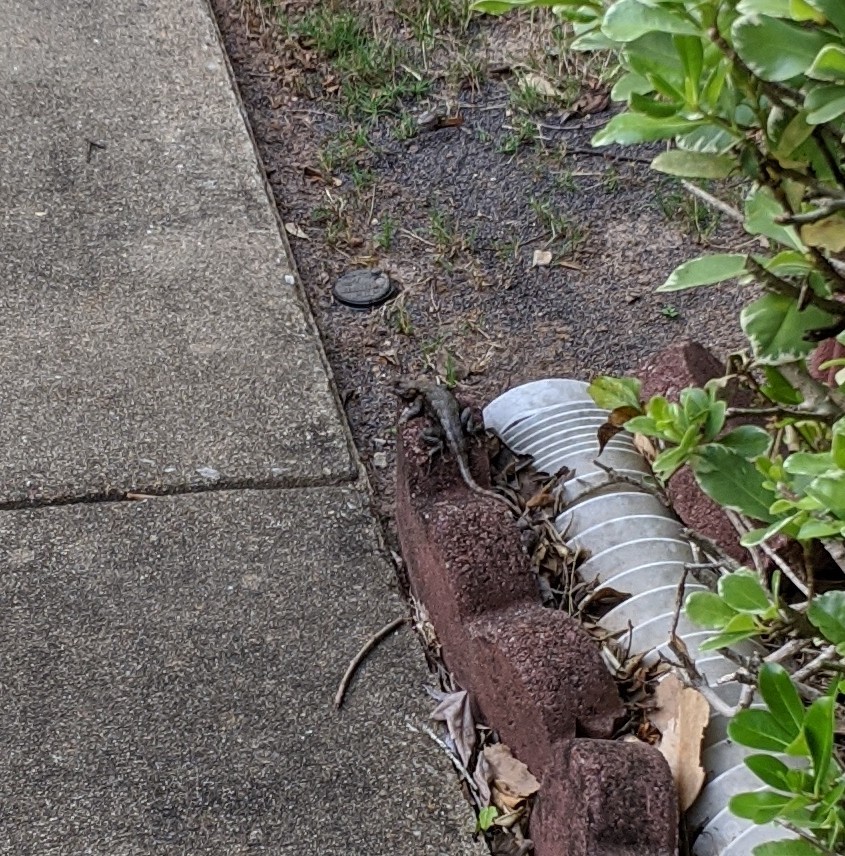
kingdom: Animalia
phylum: Chordata
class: Squamata
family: Phrynosomatidae
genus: Sceloporus
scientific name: Sceloporus undulatus
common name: Eastern fence lizard
